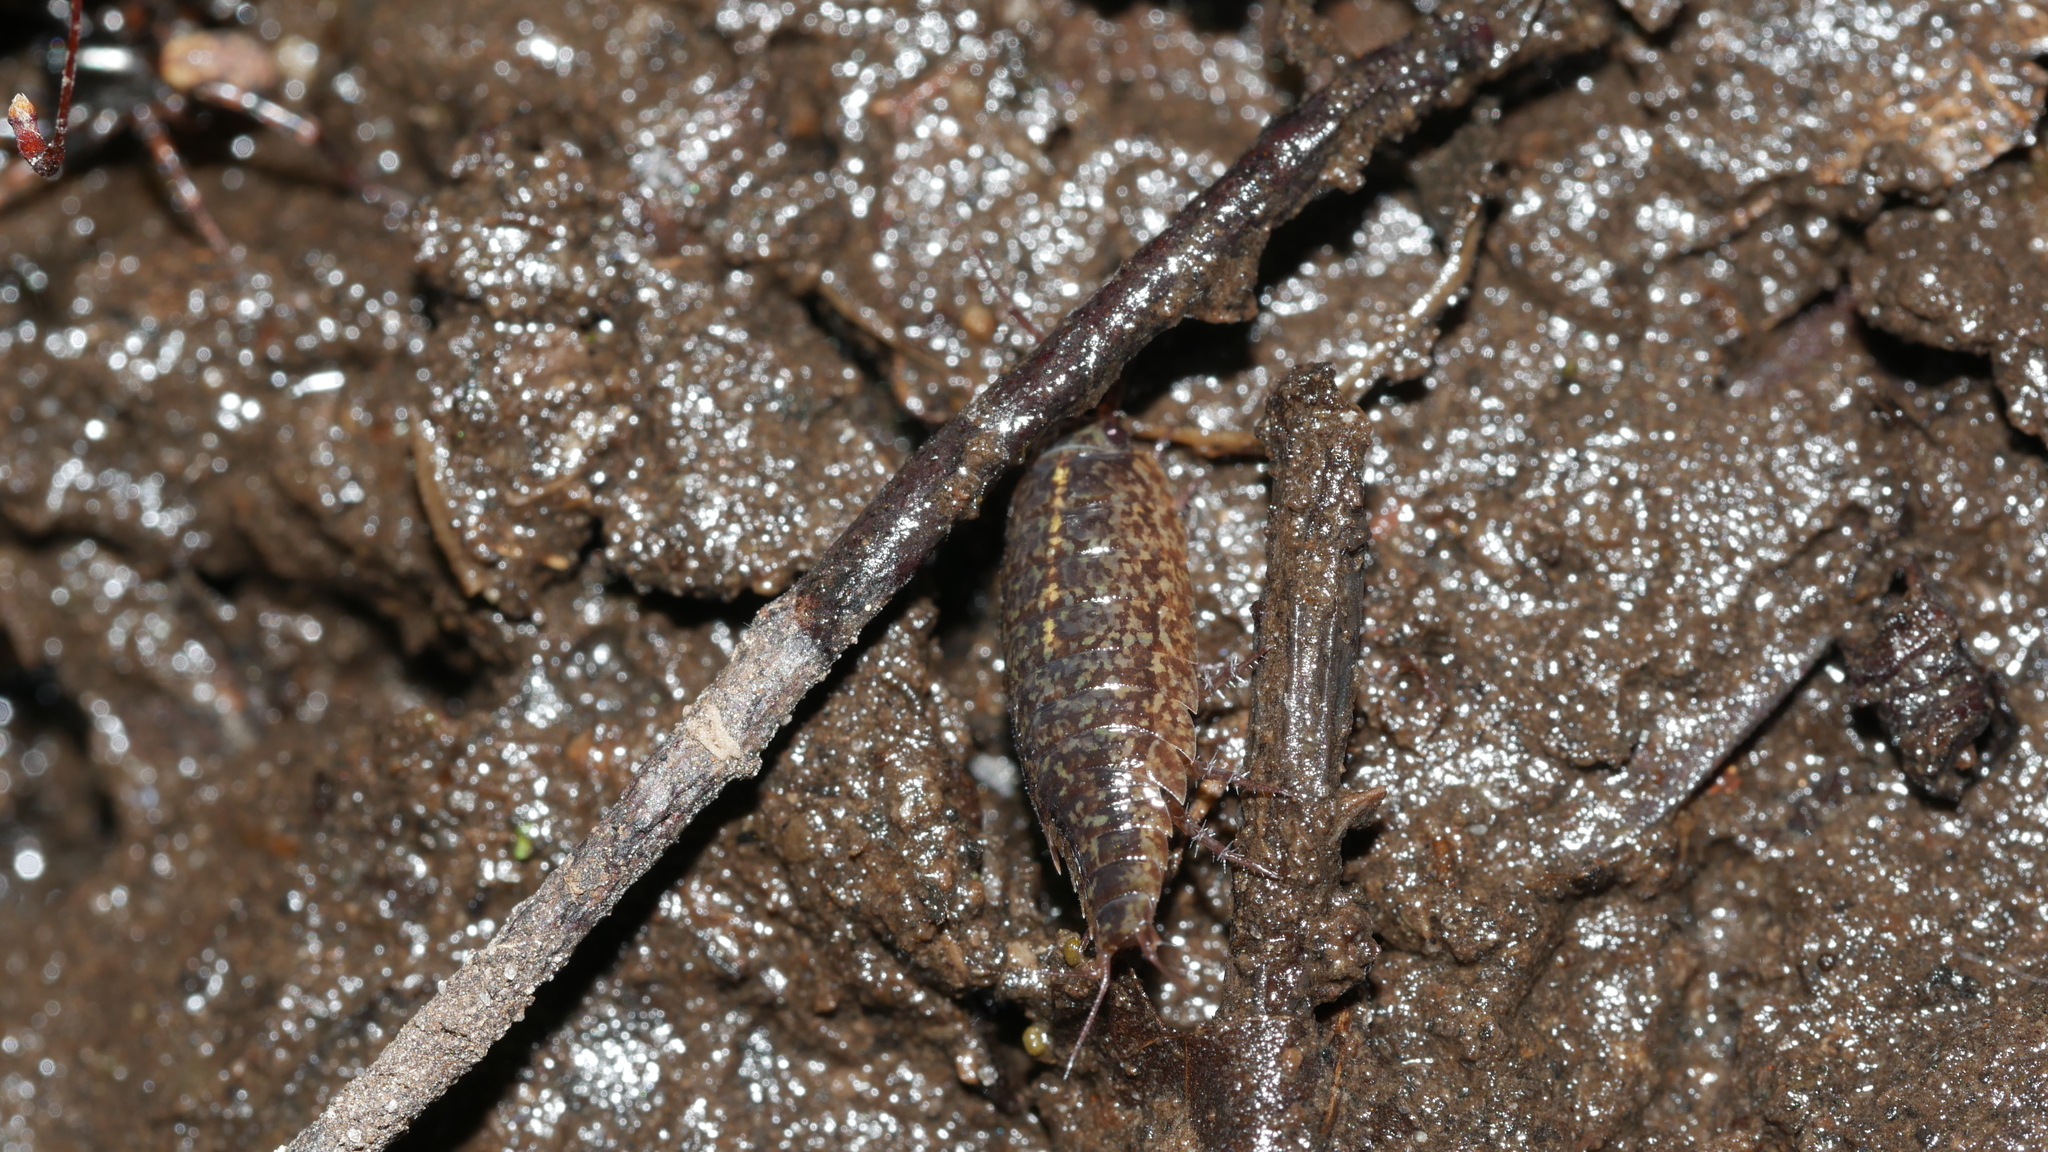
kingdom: Animalia
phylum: Arthropoda
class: Malacostraca
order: Isopoda
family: Ligiidae
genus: Ligidium
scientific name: Ligidium elrodii
